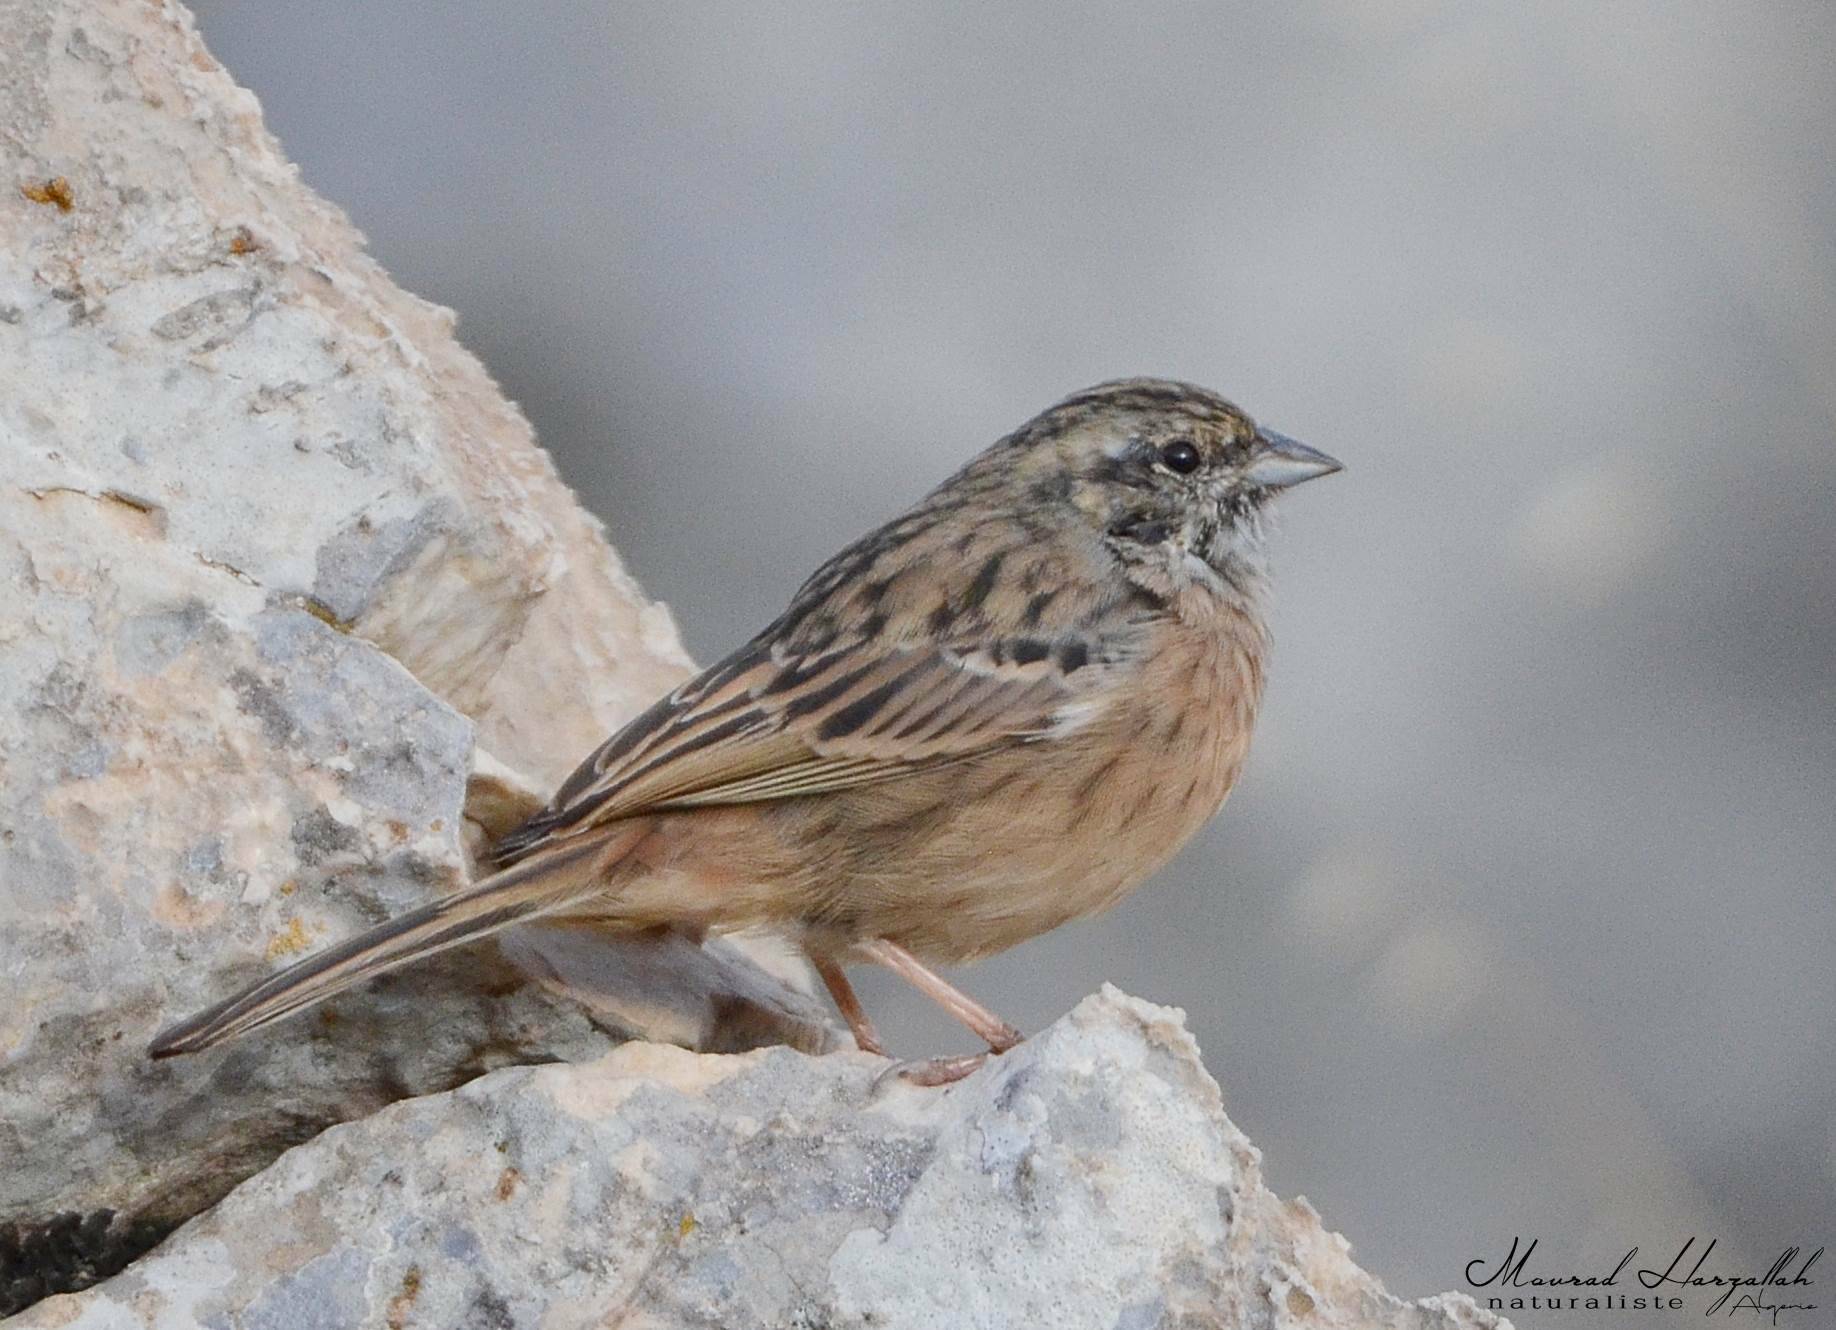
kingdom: Animalia
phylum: Chordata
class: Aves
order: Passeriformes
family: Emberizidae
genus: Emberiza
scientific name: Emberiza cia
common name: Rock bunting
